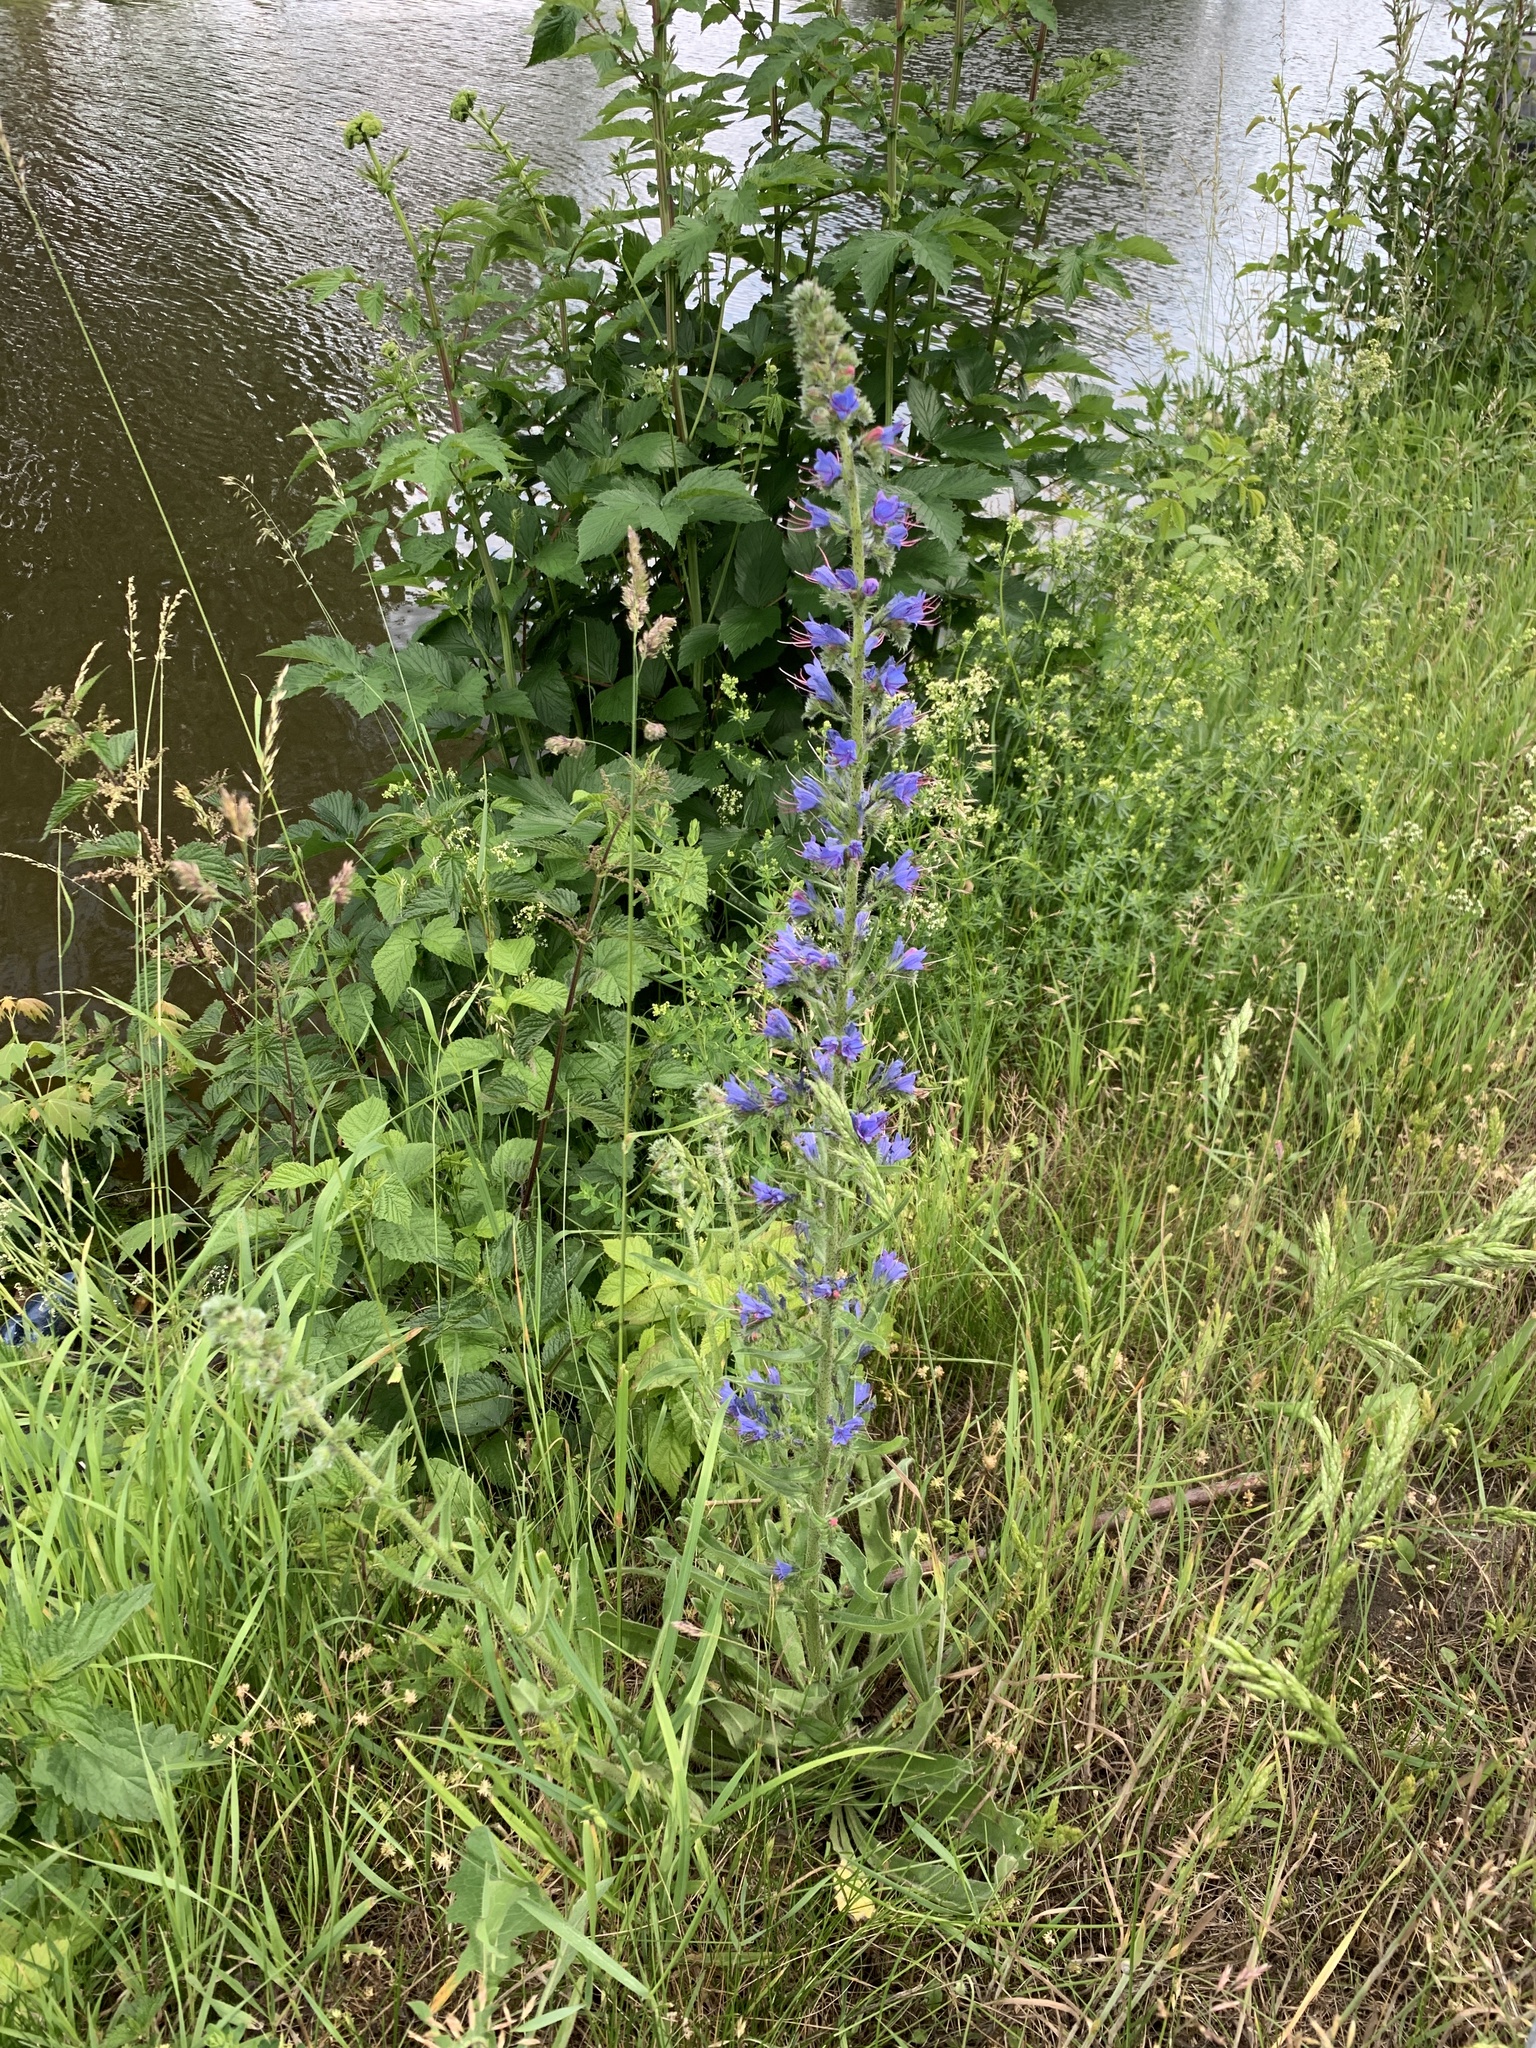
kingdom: Plantae
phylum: Tracheophyta
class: Magnoliopsida
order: Boraginales
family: Boraginaceae
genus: Echium
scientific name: Echium vulgare
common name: Common viper's bugloss
